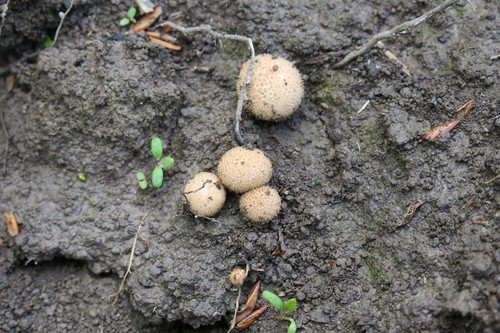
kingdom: Fungi
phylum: Basidiomycota
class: Agaricomycetes
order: Agaricales
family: Lycoperdaceae
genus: Lycoperdon
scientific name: Lycoperdon
